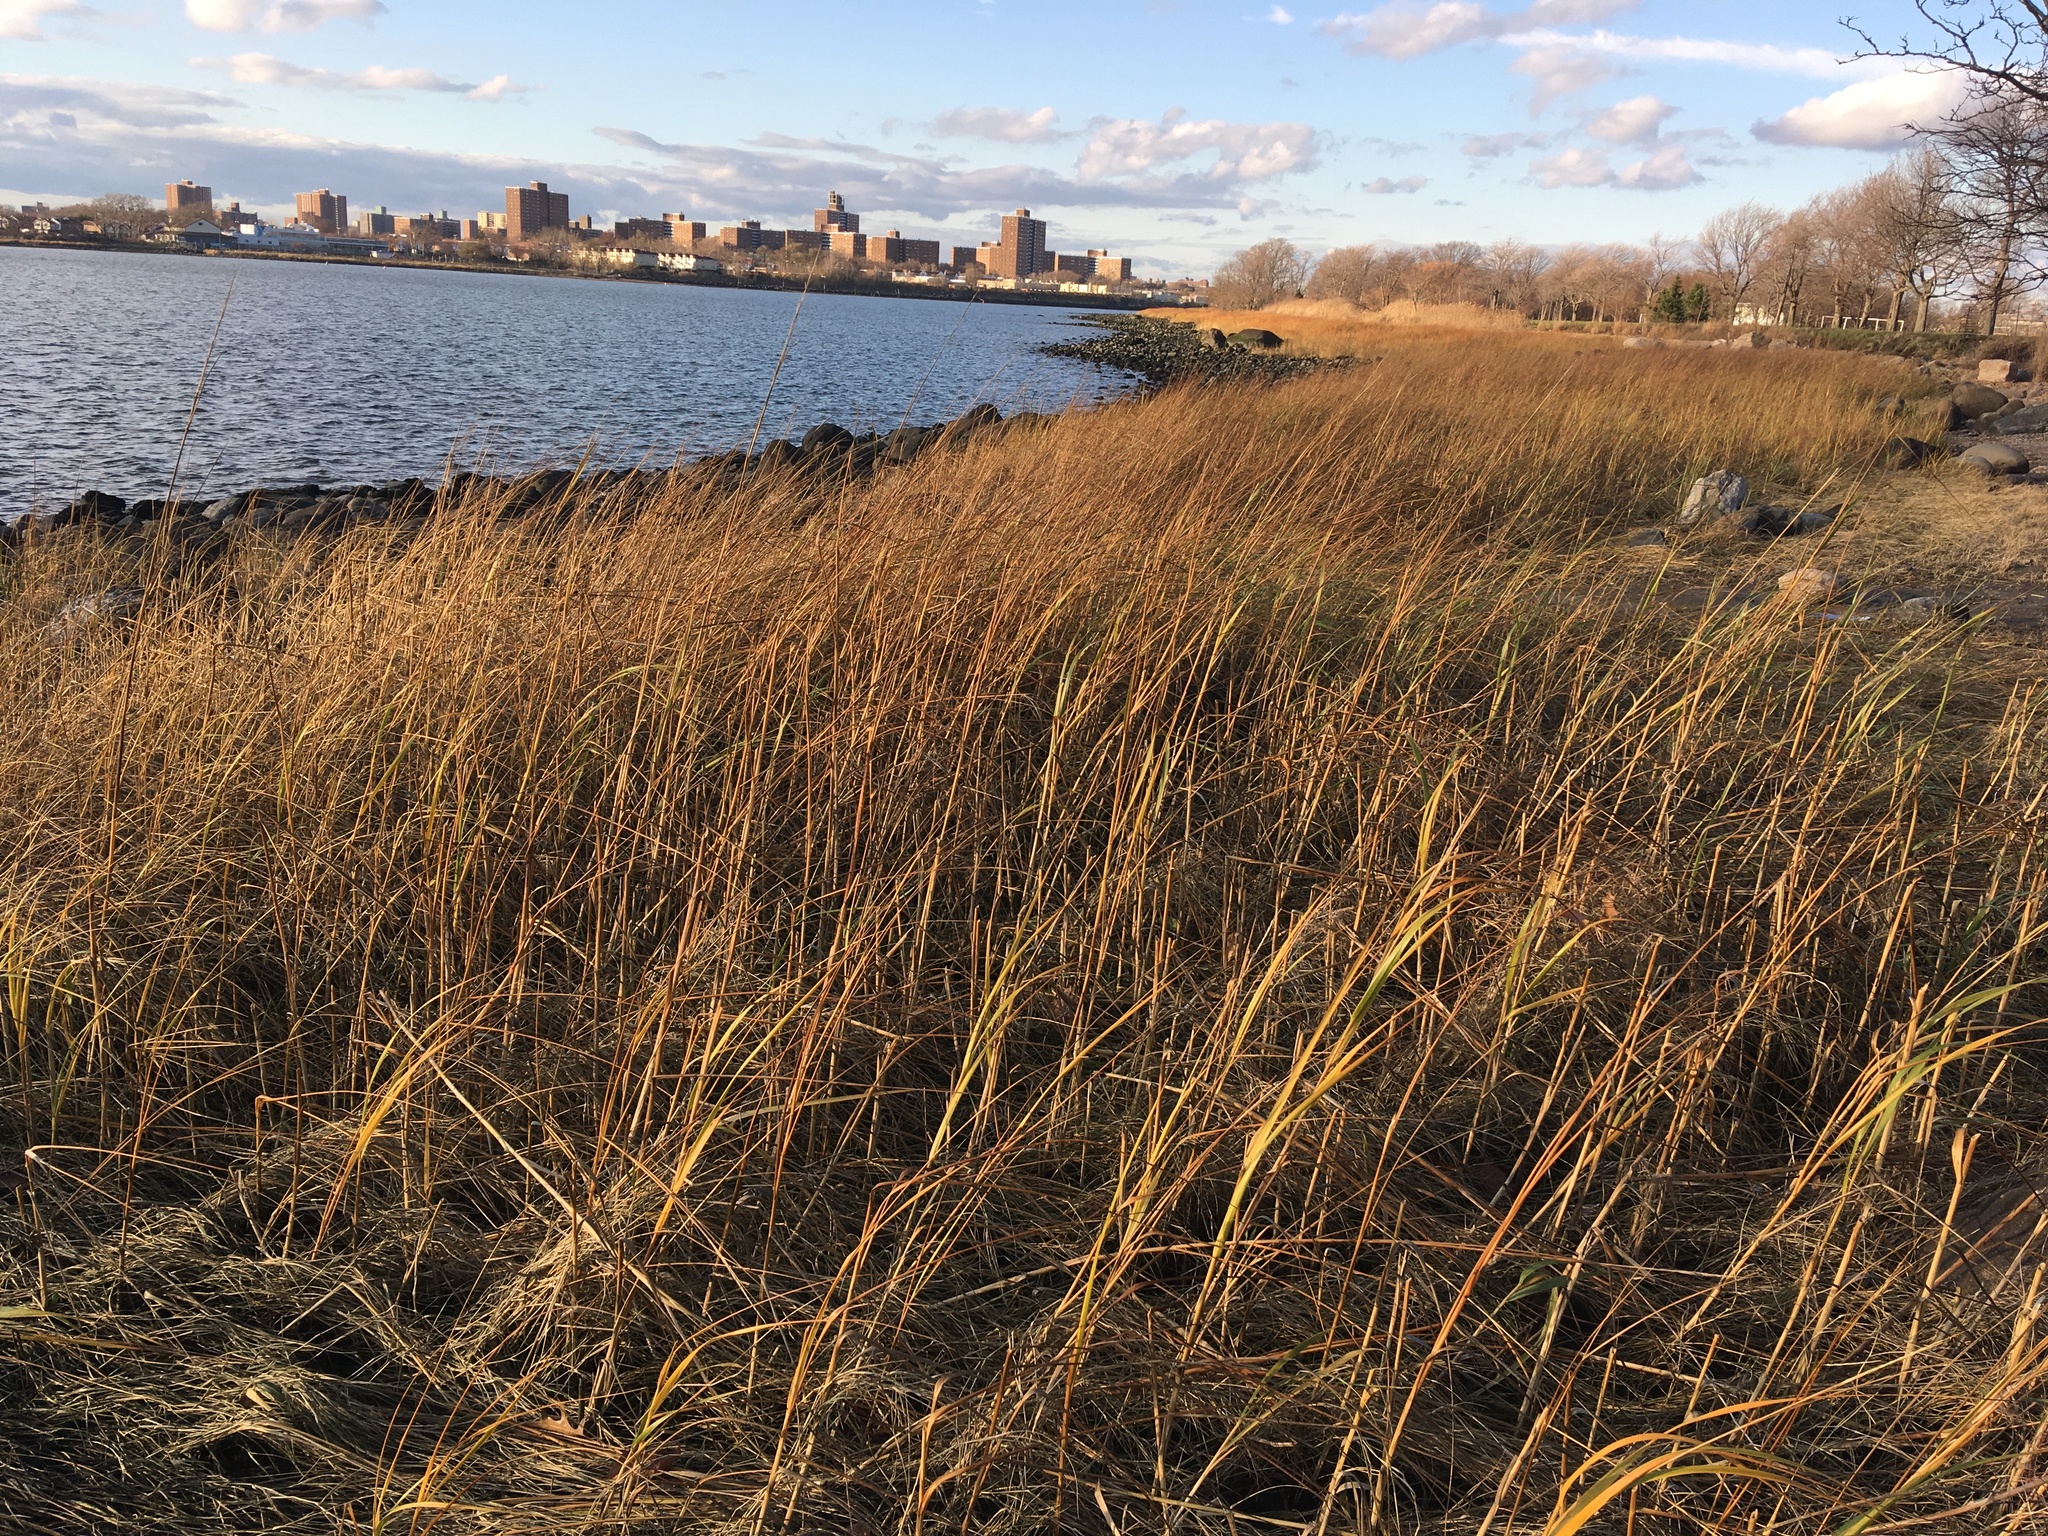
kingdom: Plantae
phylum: Tracheophyta
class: Liliopsida
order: Poales
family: Poaceae
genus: Sporobolus
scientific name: Sporobolus alterniflorus
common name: Atlantic cordgrass
